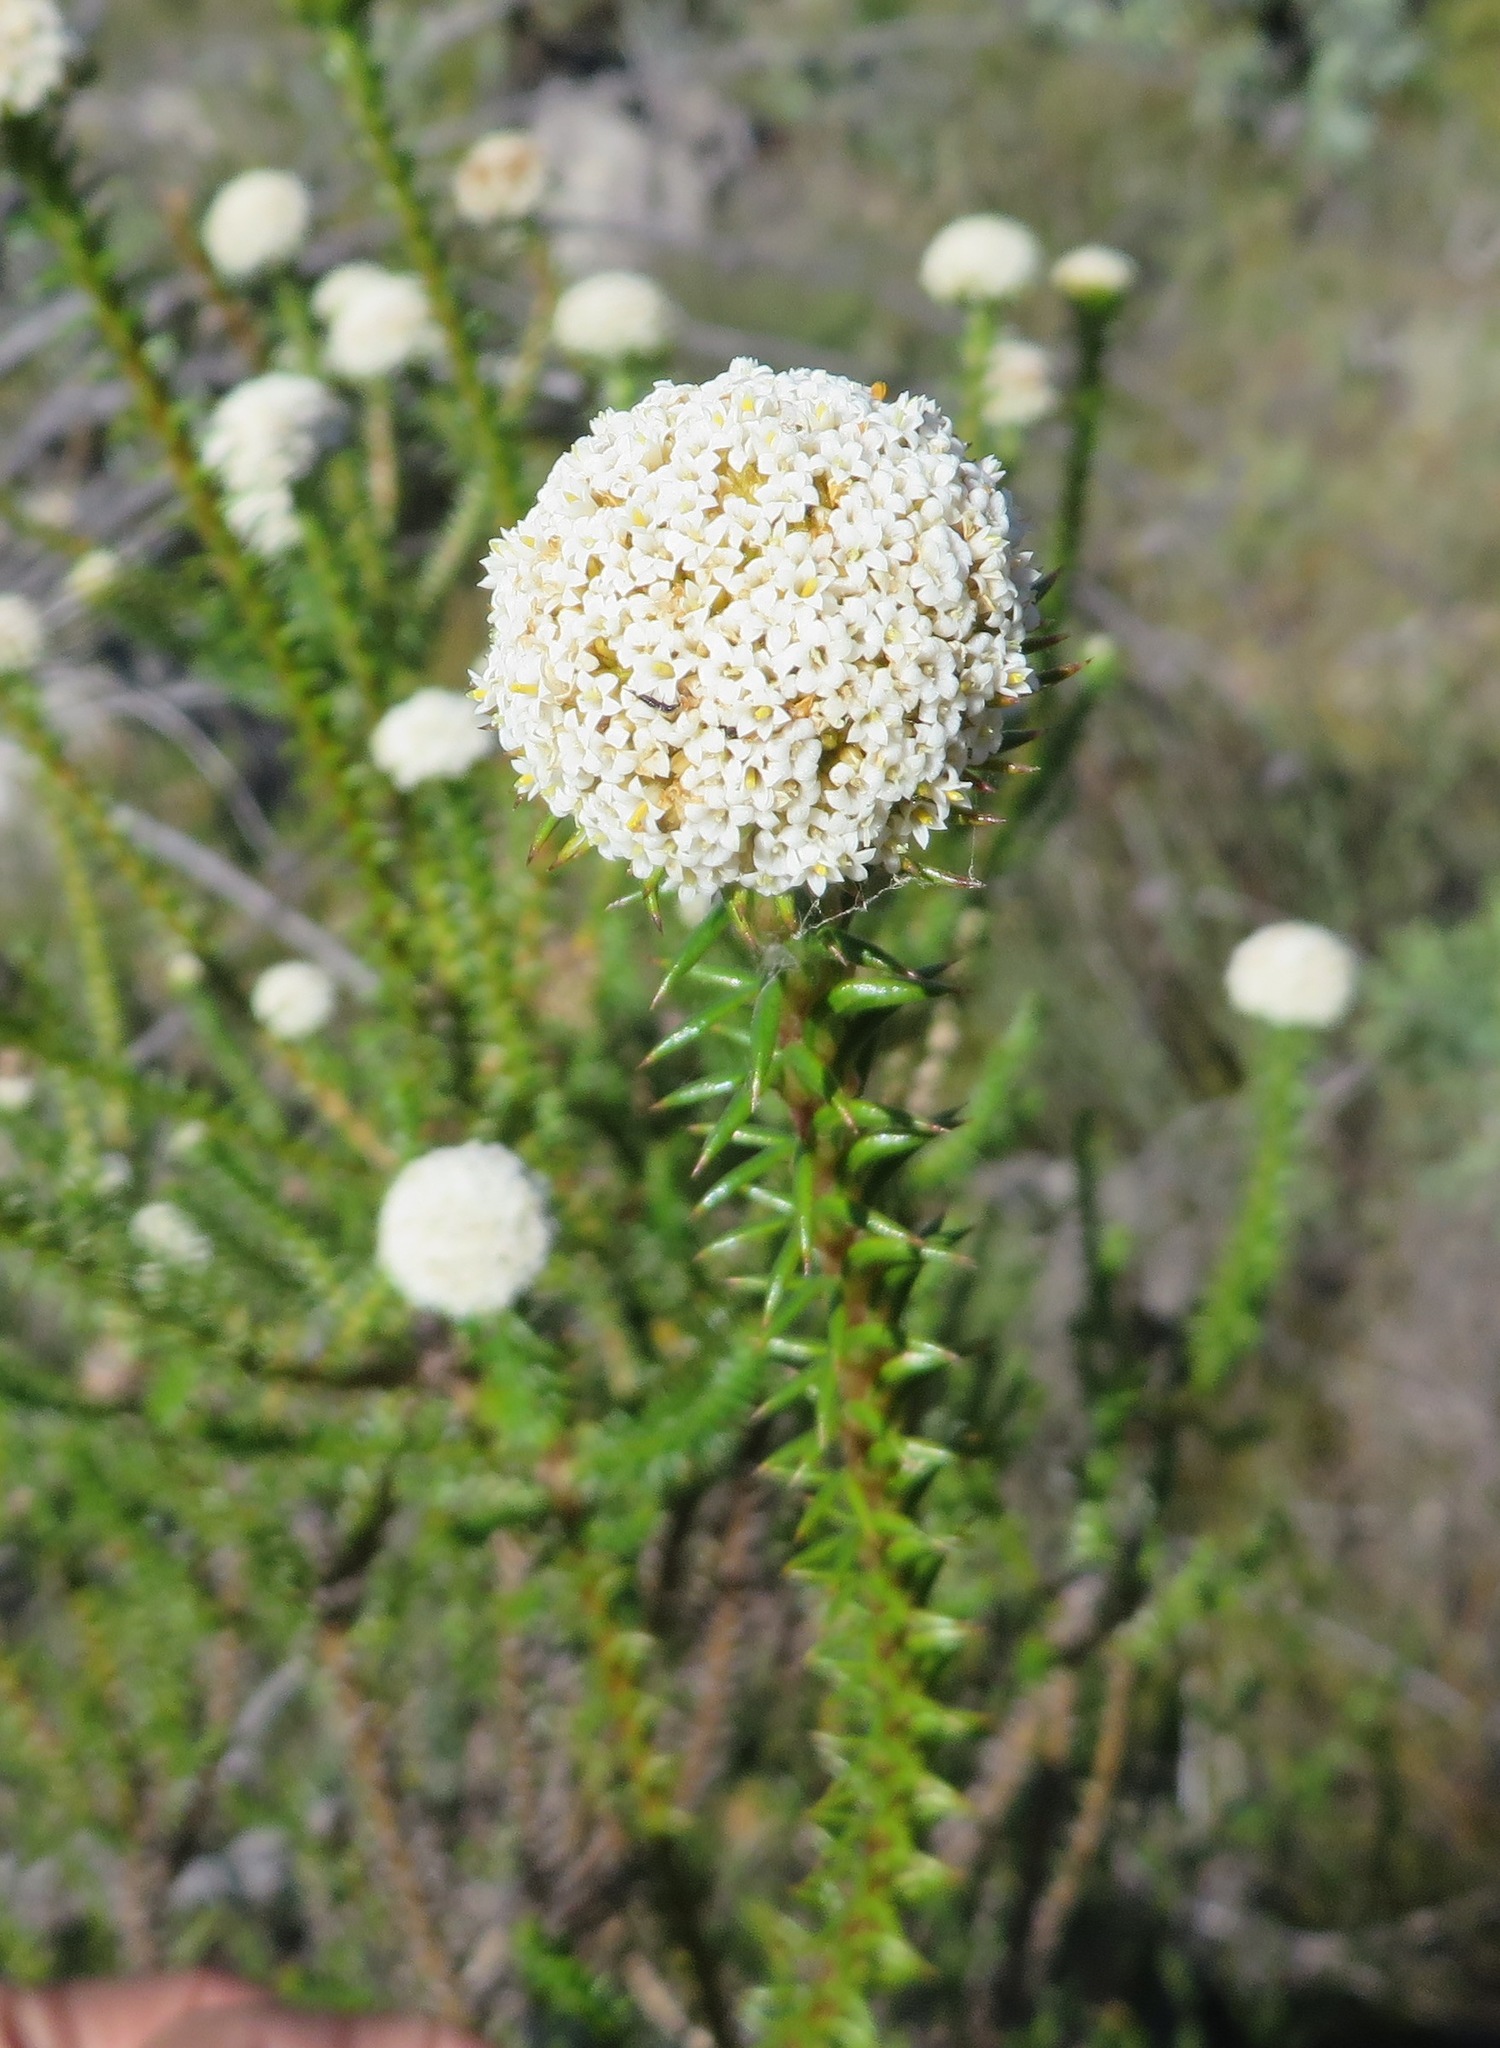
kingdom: Plantae
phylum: Tracheophyta
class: Magnoliopsida
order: Asterales
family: Asteraceae
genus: Stoebe
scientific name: Stoebe aethiopica
